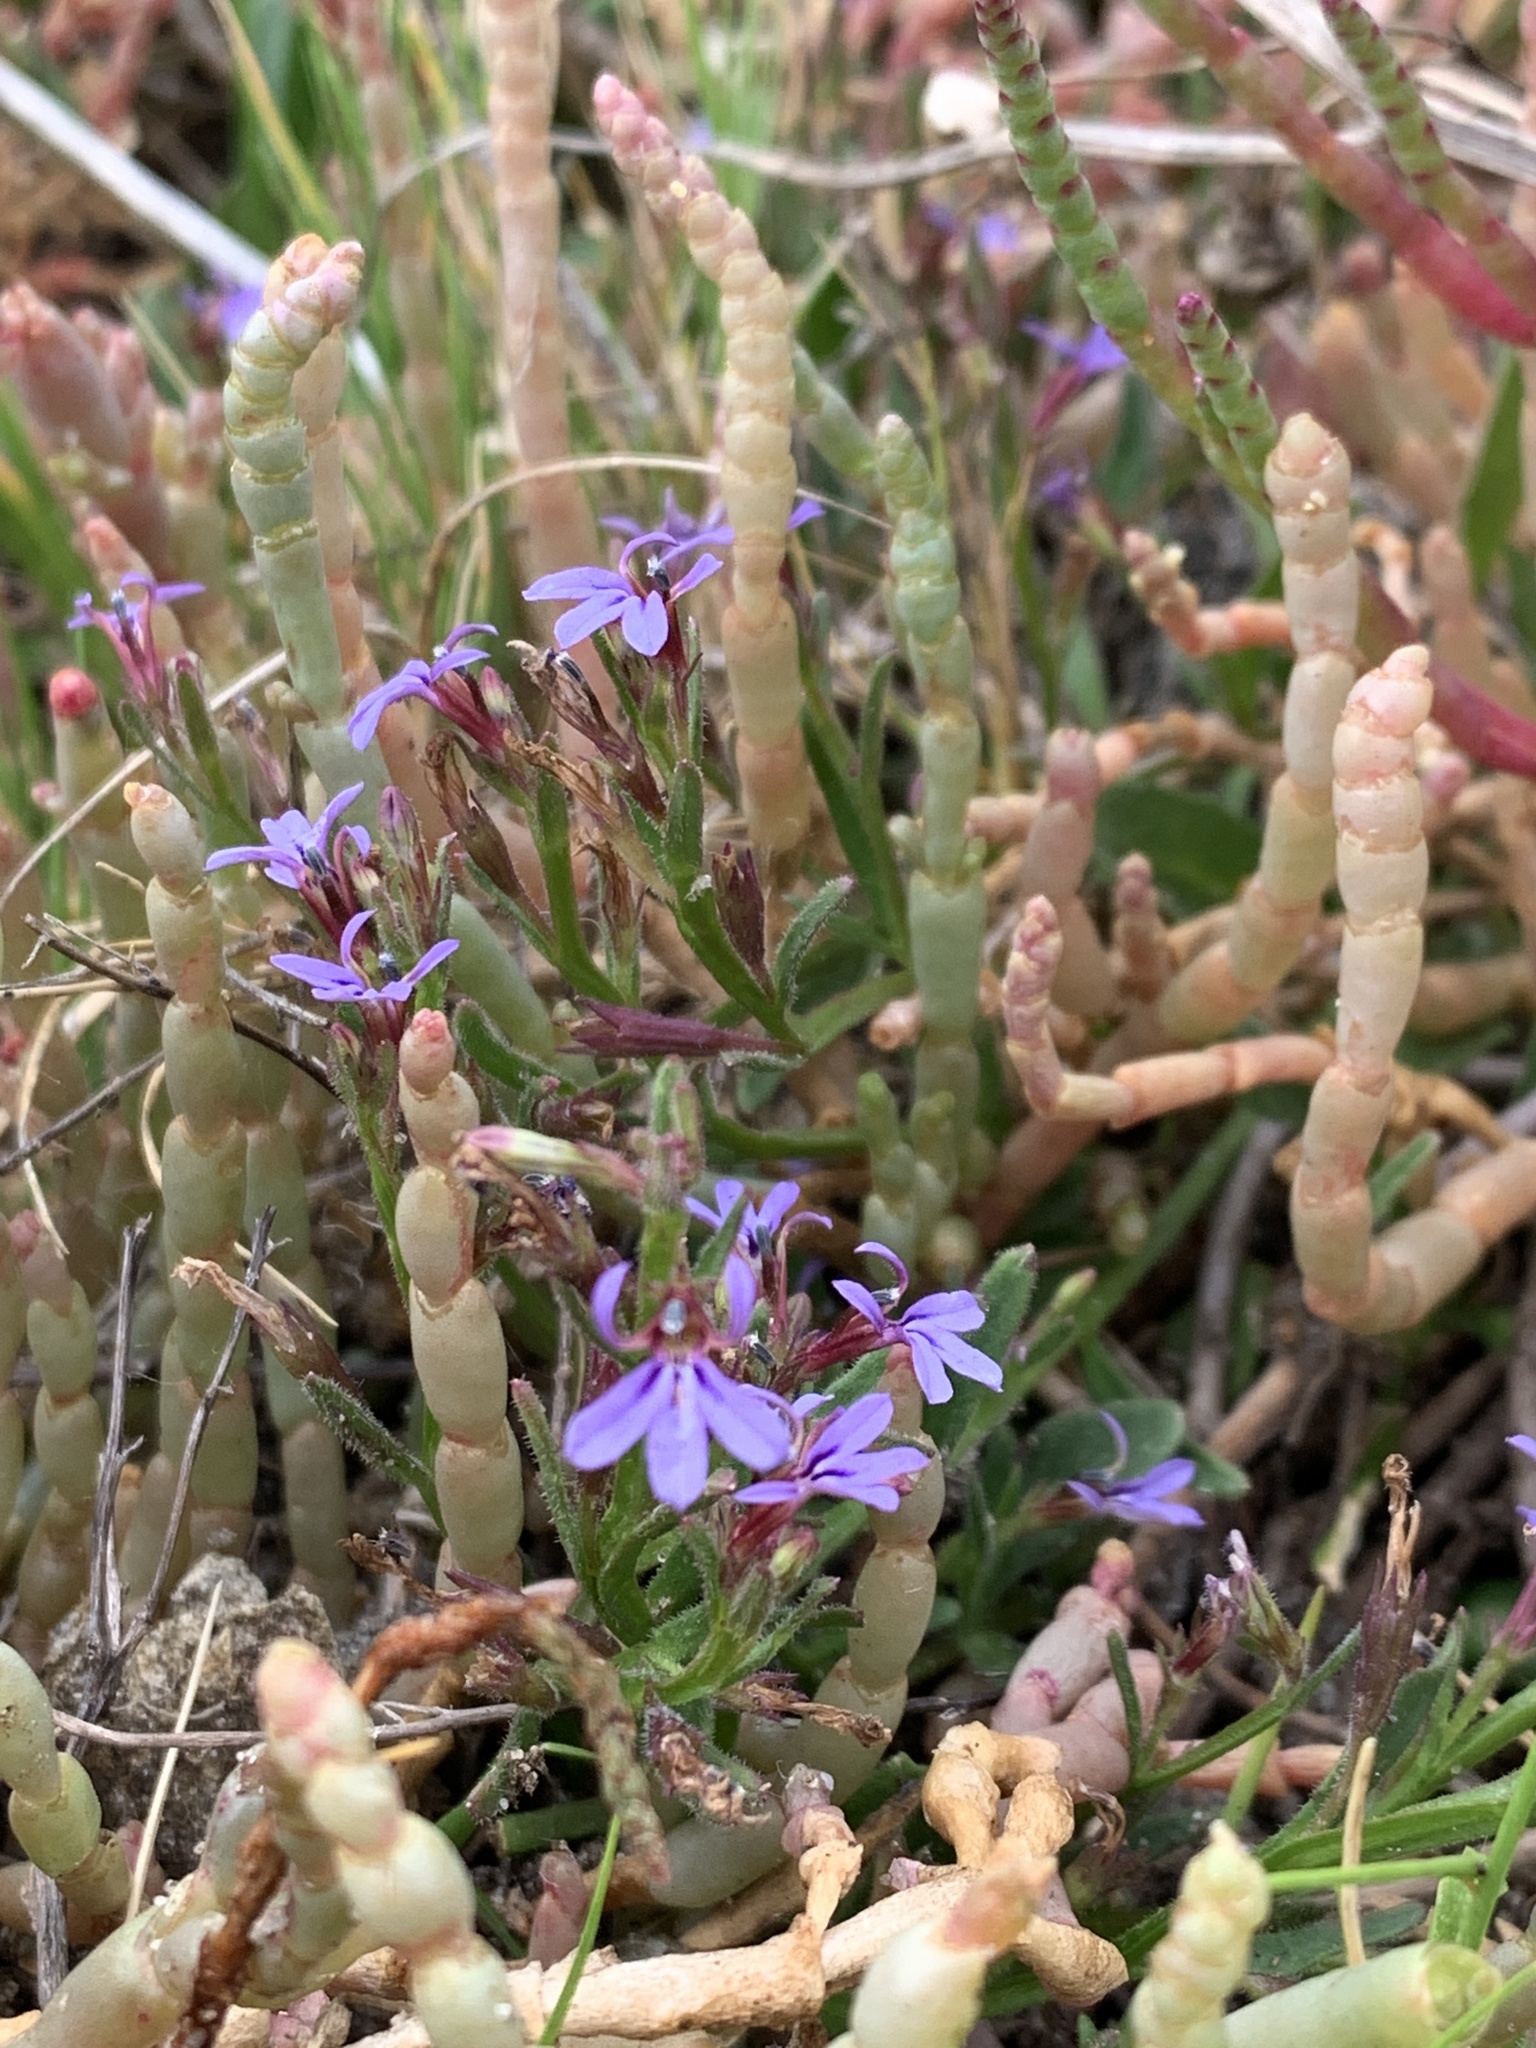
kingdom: Plantae
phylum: Tracheophyta
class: Magnoliopsida
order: Asterales
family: Campanulaceae
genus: Lobelia
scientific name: Lobelia anceps
